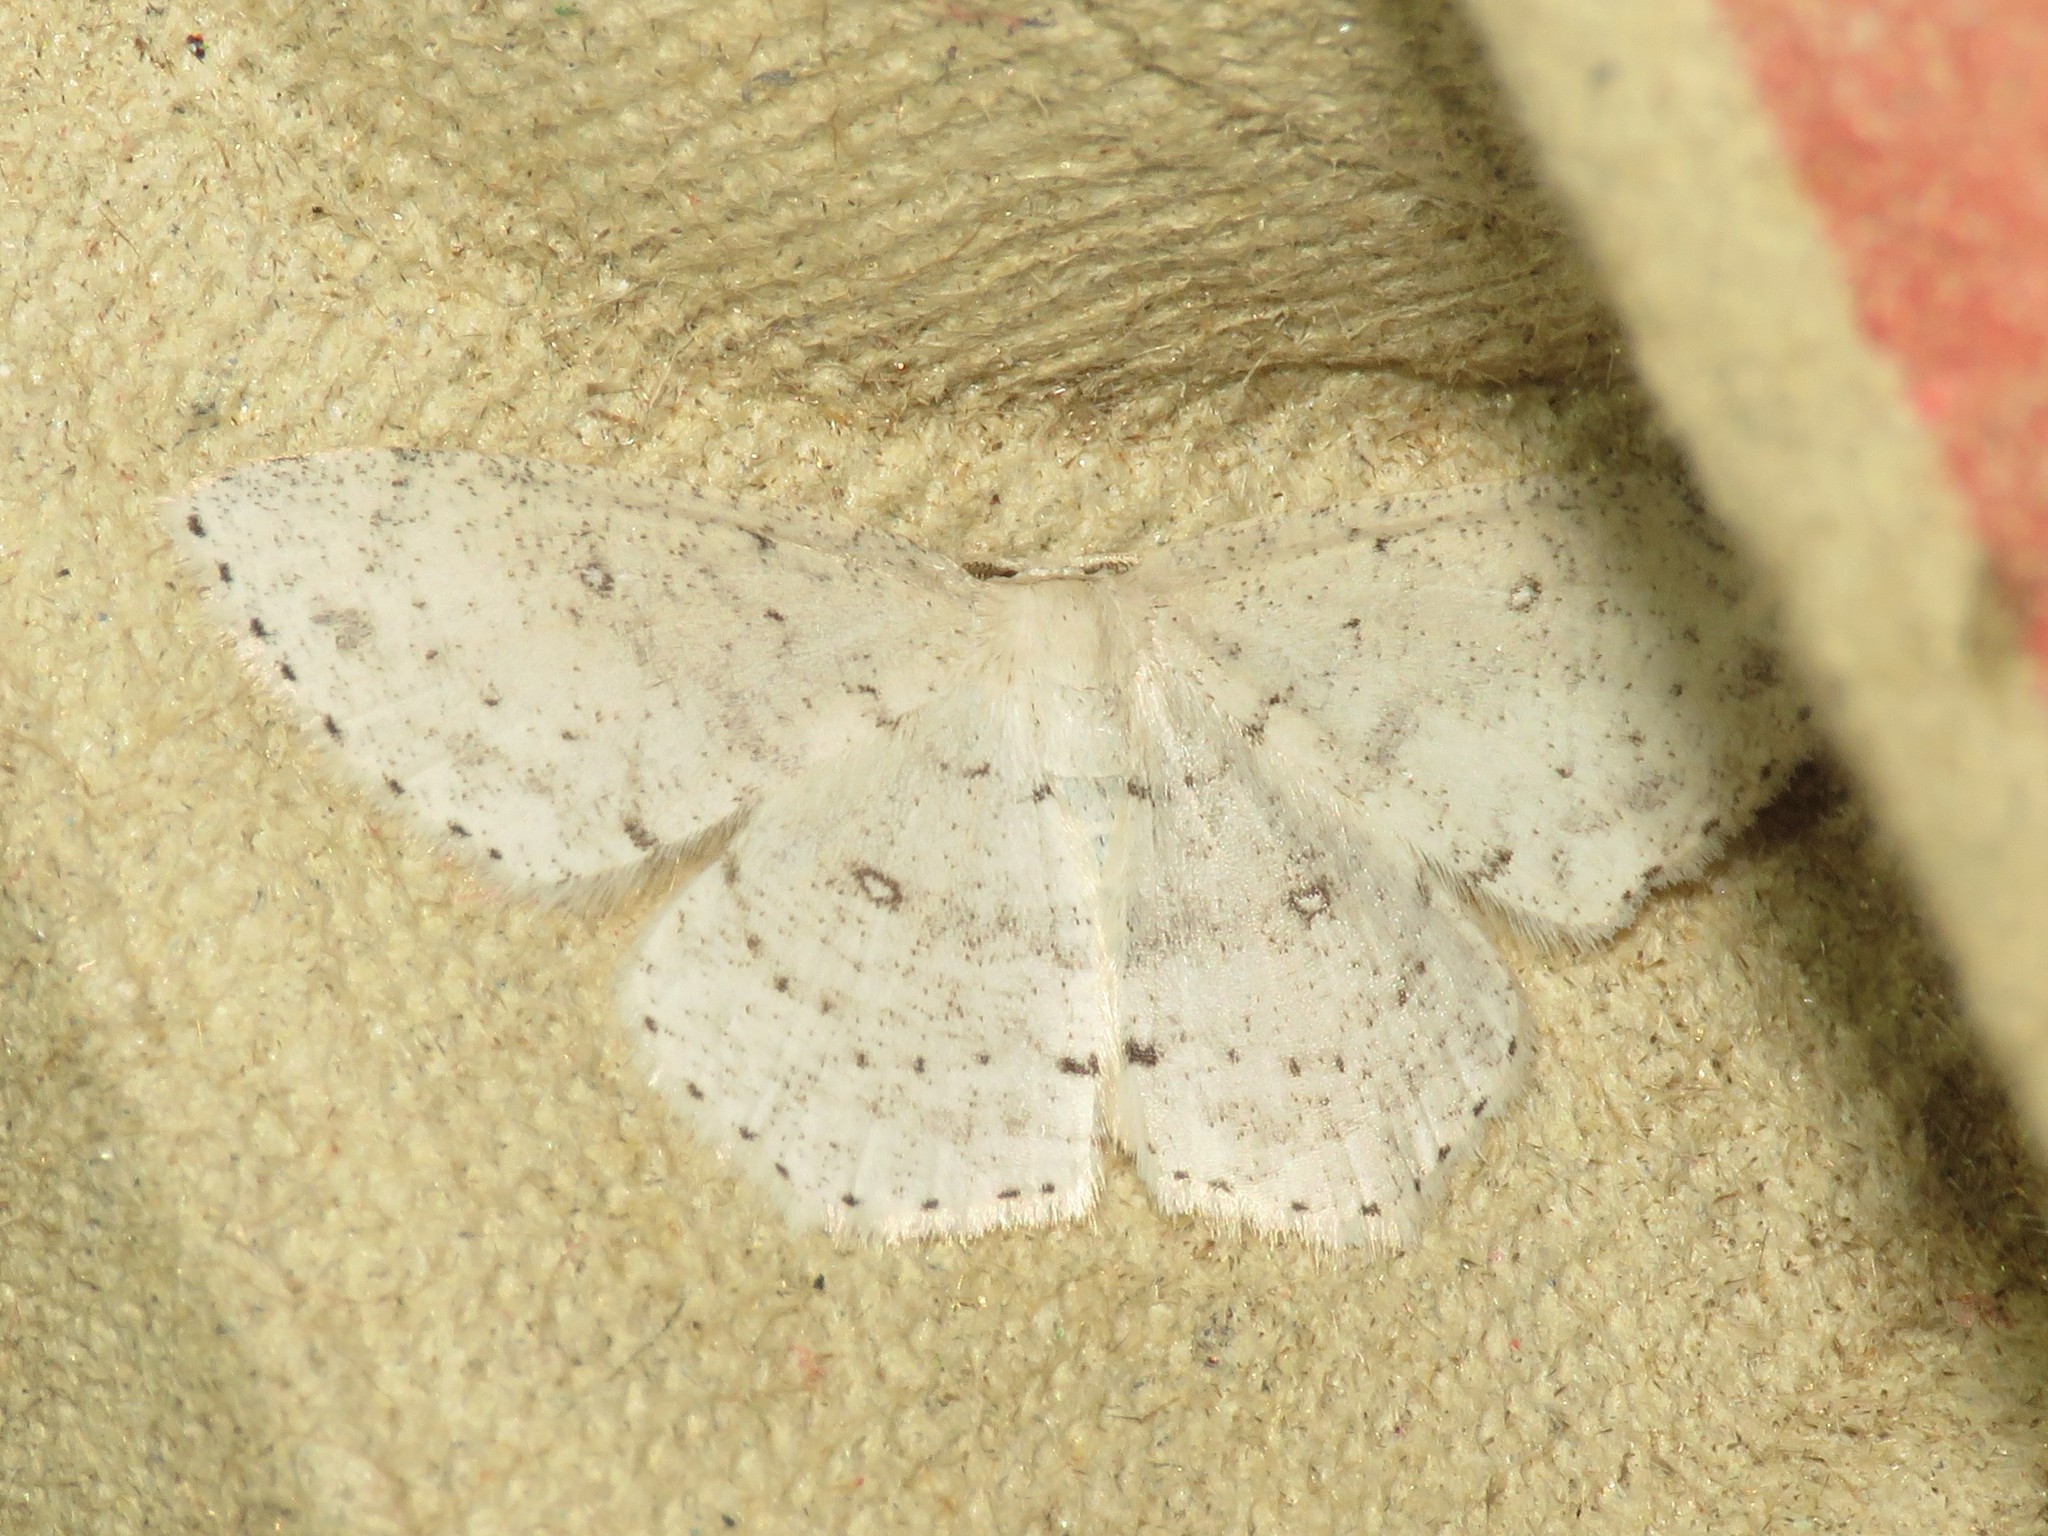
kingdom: Animalia
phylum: Arthropoda
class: Insecta
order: Lepidoptera
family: Geometridae
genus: Cyclophora
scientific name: Cyclophora pendulinaria
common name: Sweet fern geometer
